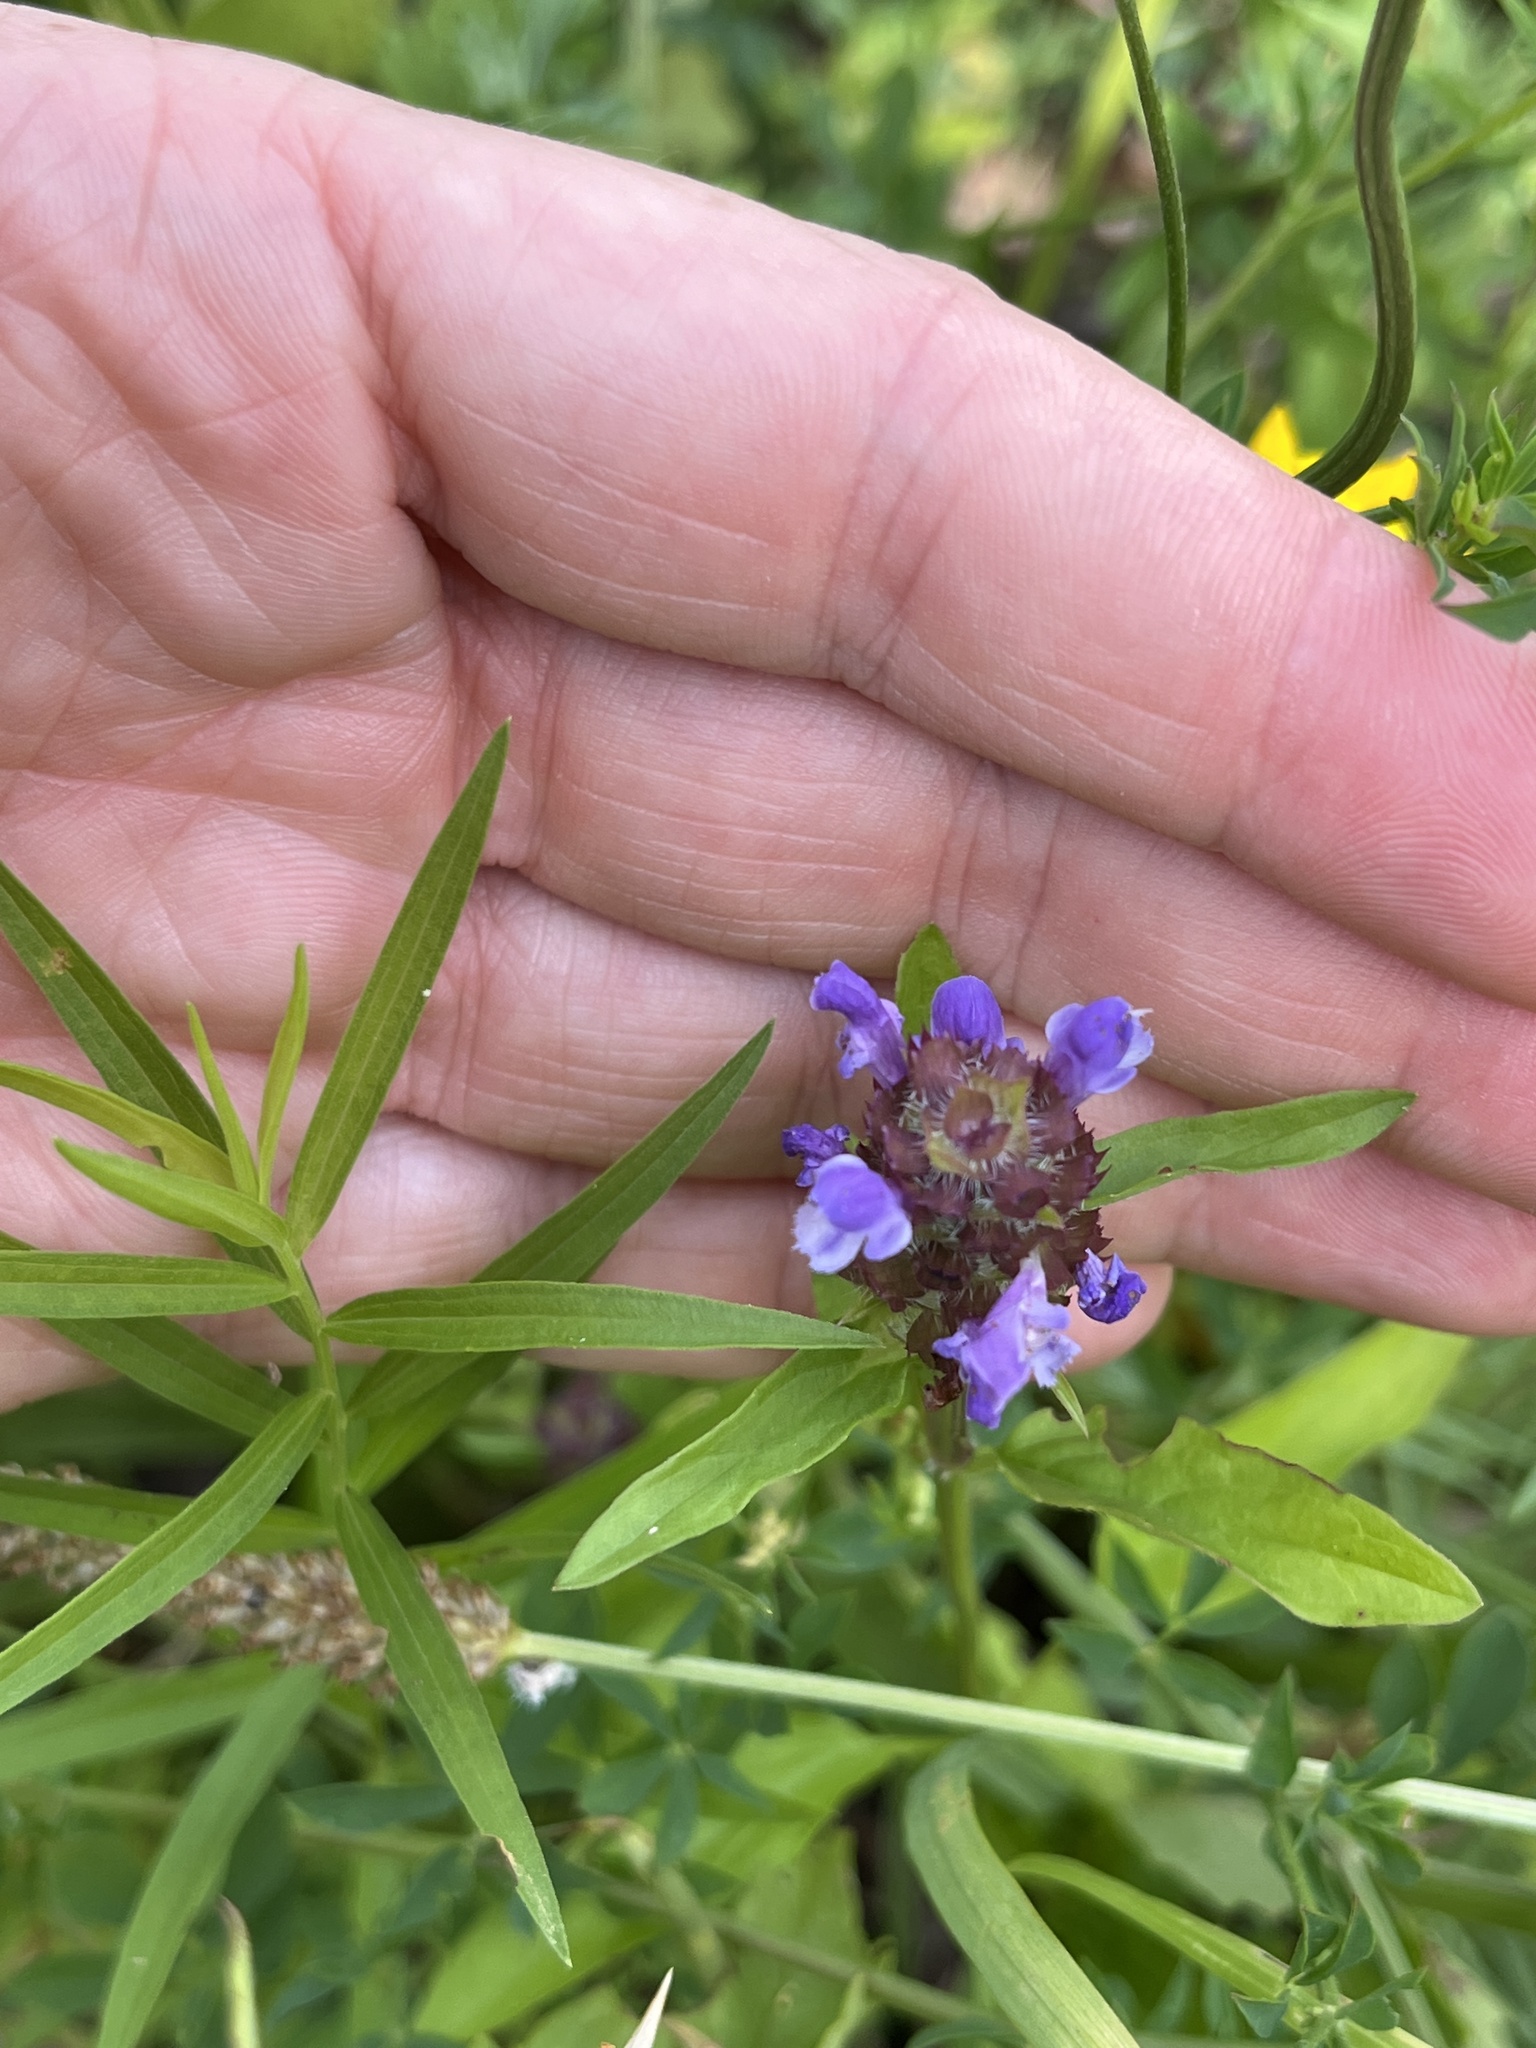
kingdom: Plantae
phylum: Tracheophyta
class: Magnoliopsida
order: Lamiales
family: Lamiaceae
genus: Prunella
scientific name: Prunella vulgaris
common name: Heal-all
